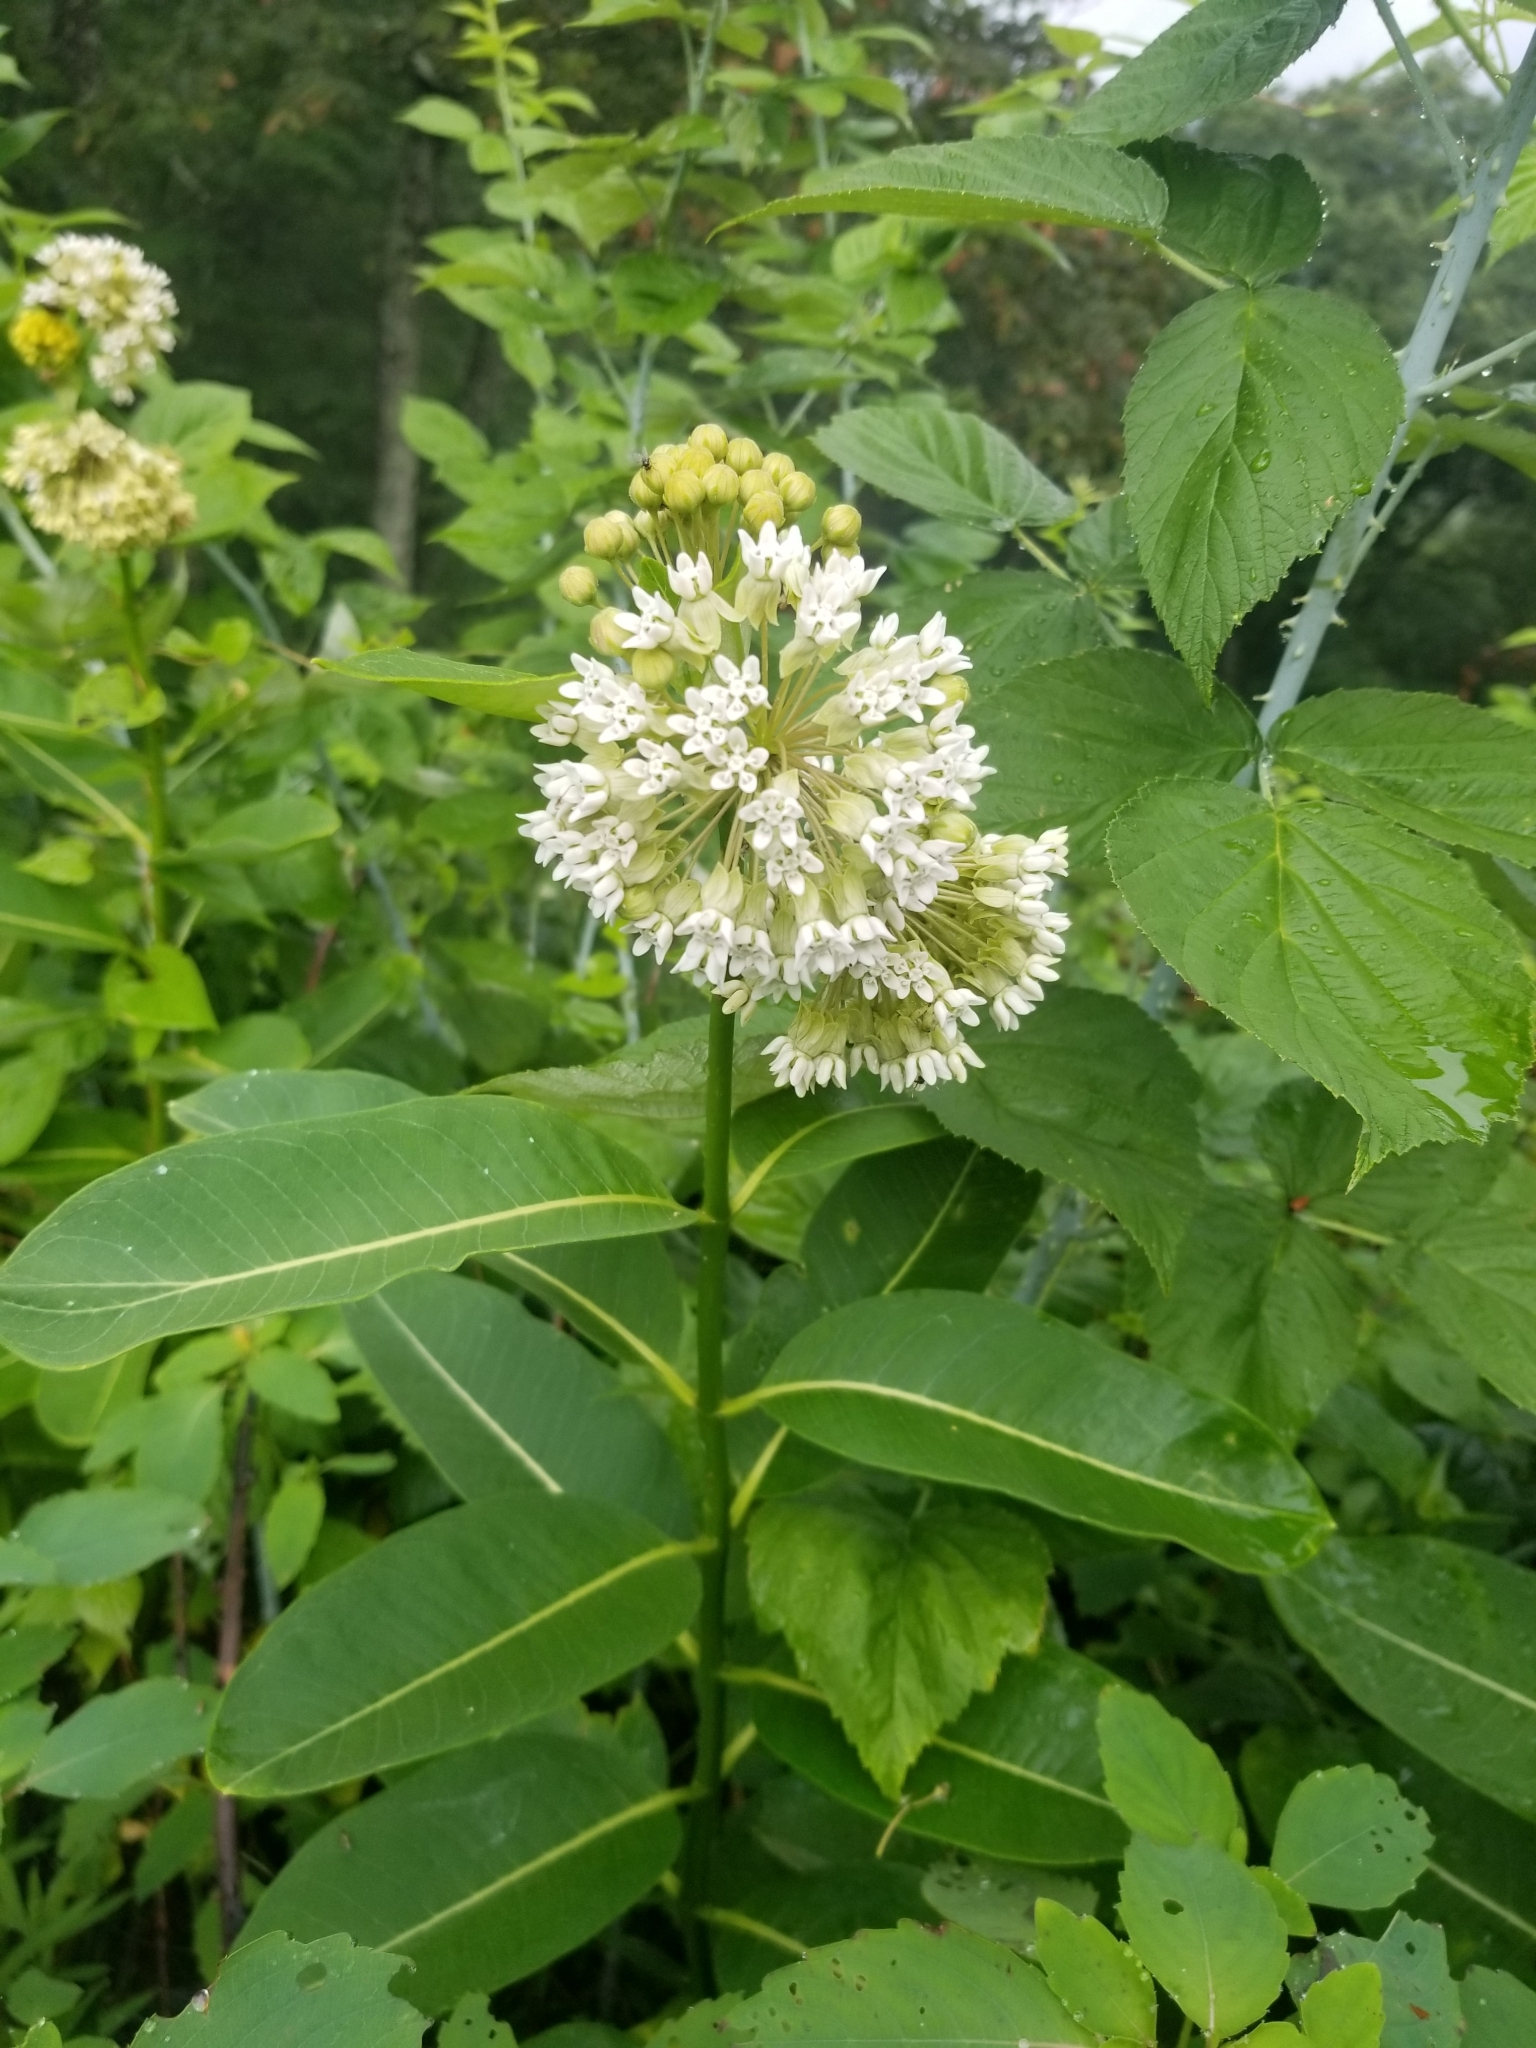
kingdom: Plantae
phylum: Tracheophyta
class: Magnoliopsida
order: Gentianales
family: Apocynaceae
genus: Asclepias
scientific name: Asclepias syriaca
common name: Common milkweed
